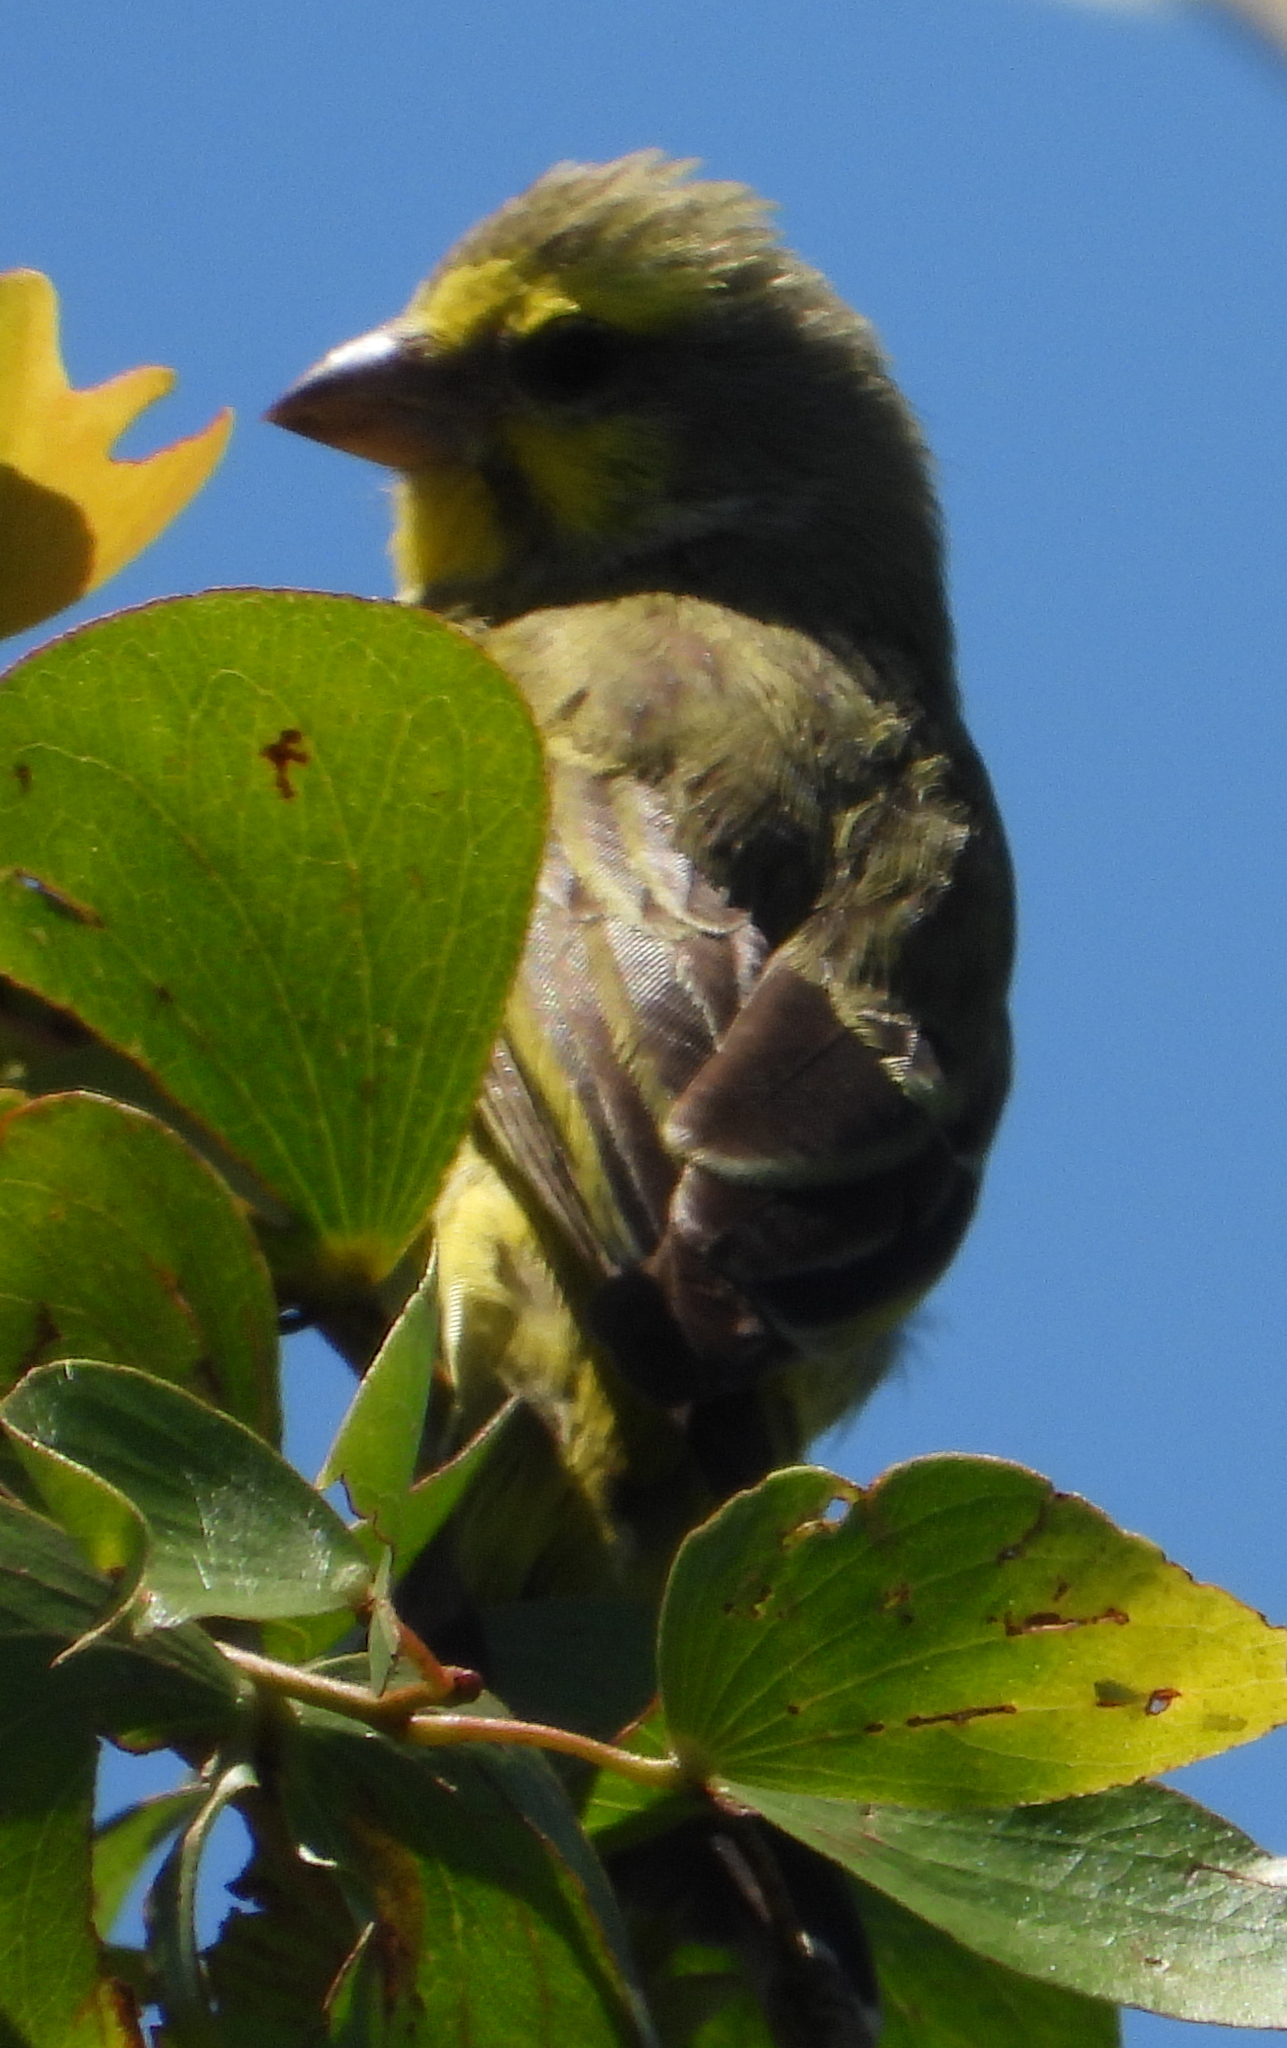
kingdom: Animalia
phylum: Chordata
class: Aves
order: Passeriformes
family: Fringillidae
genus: Crithagra
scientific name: Crithagra mozambica
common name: Yellow-fronted canary
